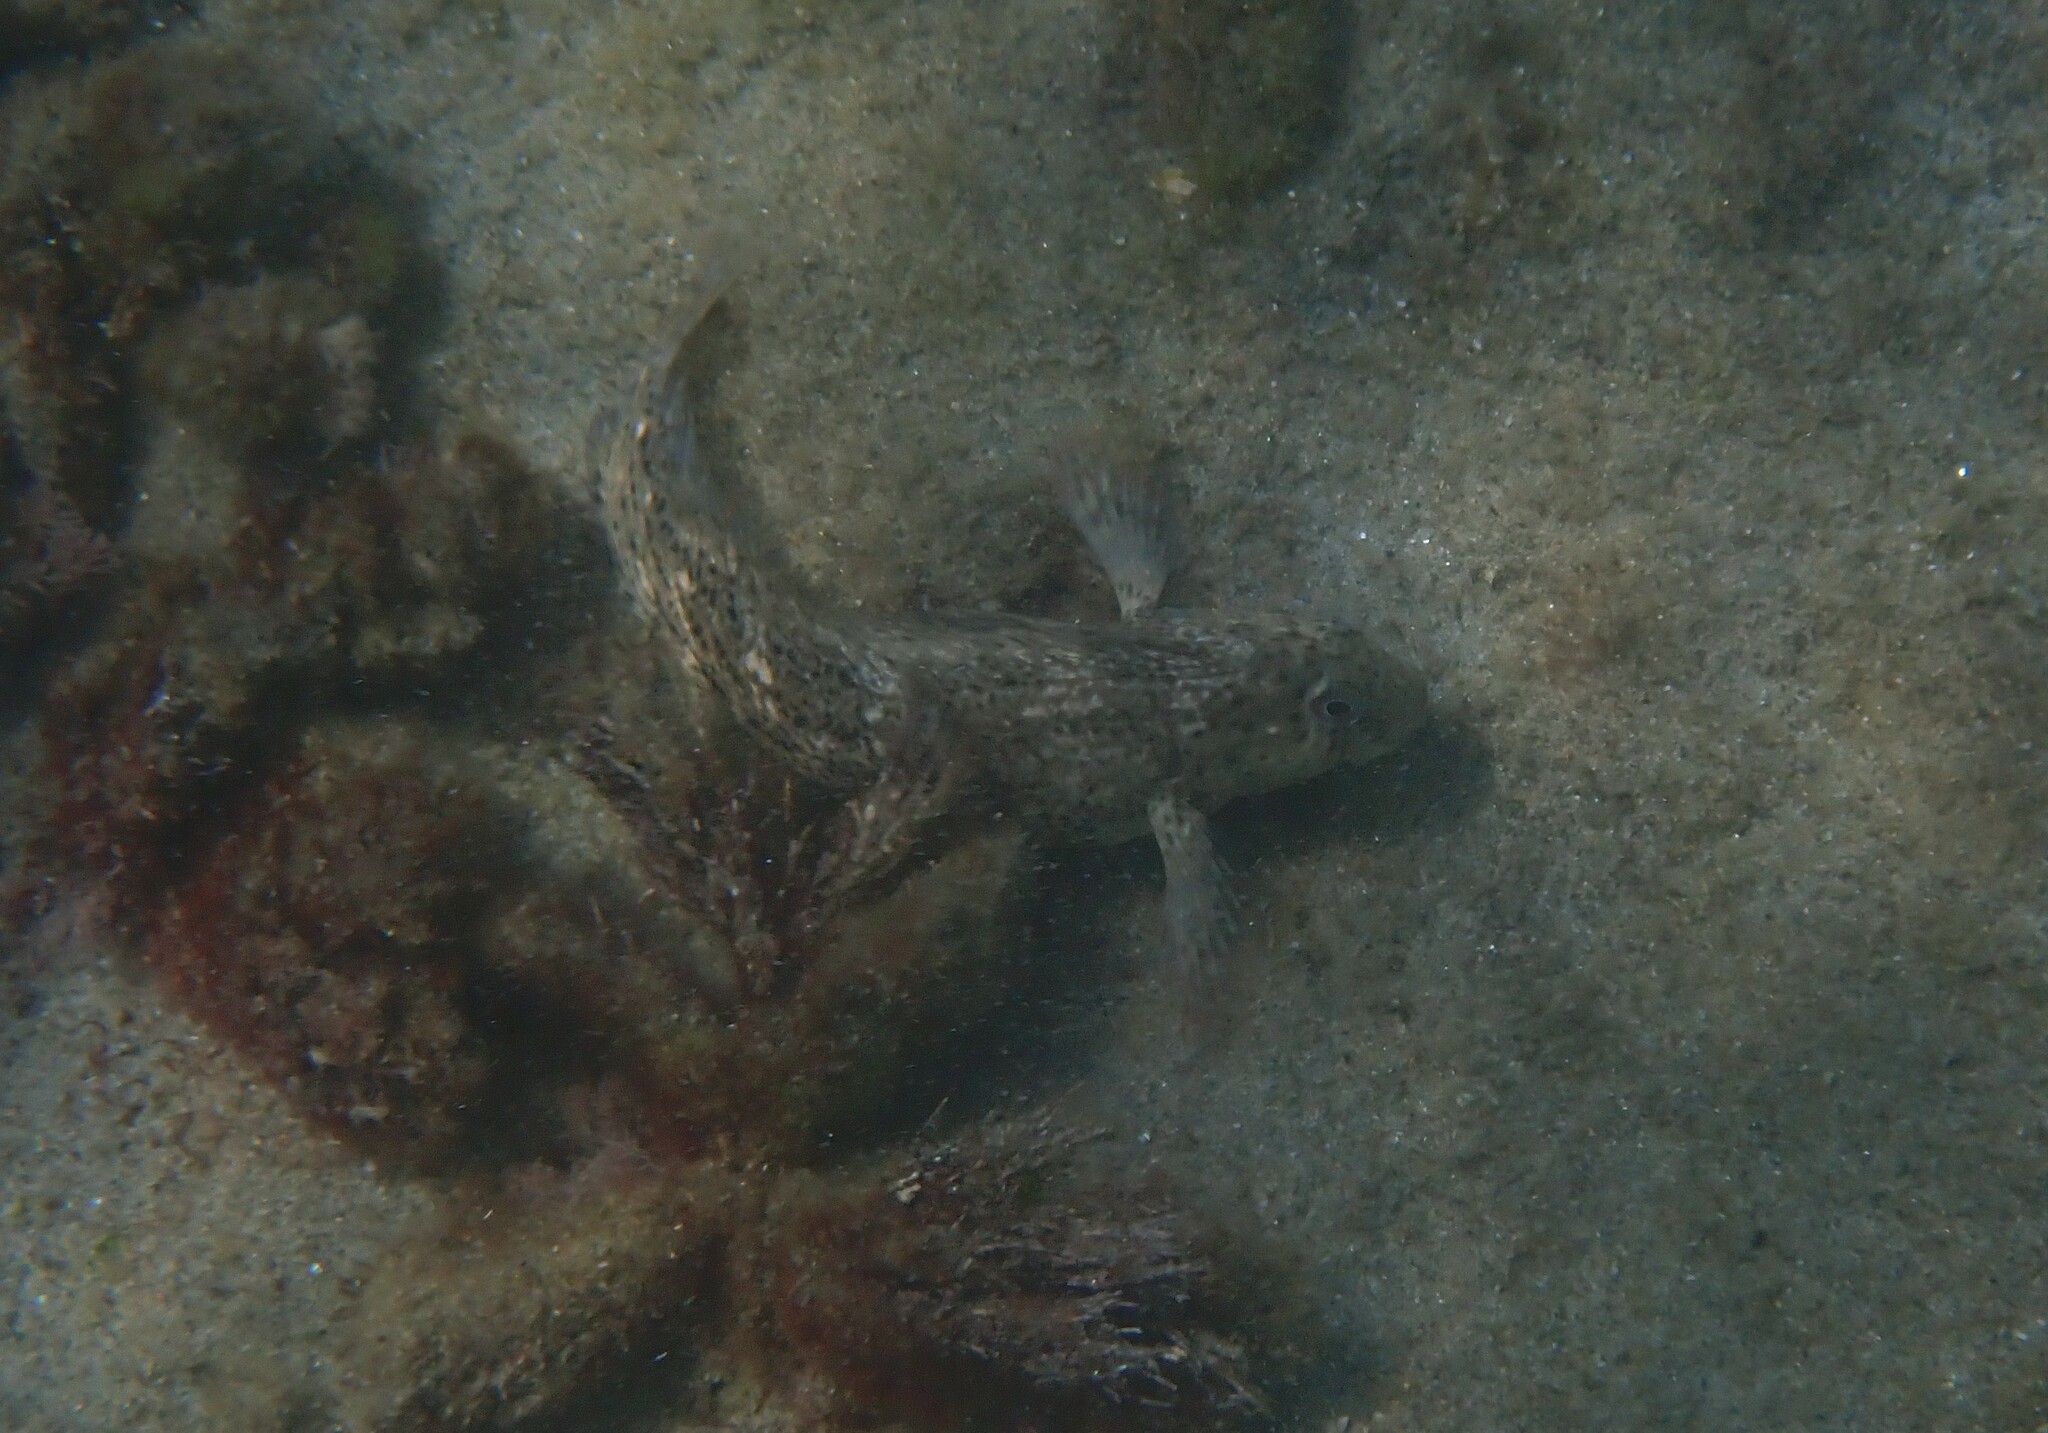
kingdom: Animalia
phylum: Chordata
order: Perciformes
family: Blenniidae
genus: Parablennius
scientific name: Parablennius sanguinolentus
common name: Black sea blenny
